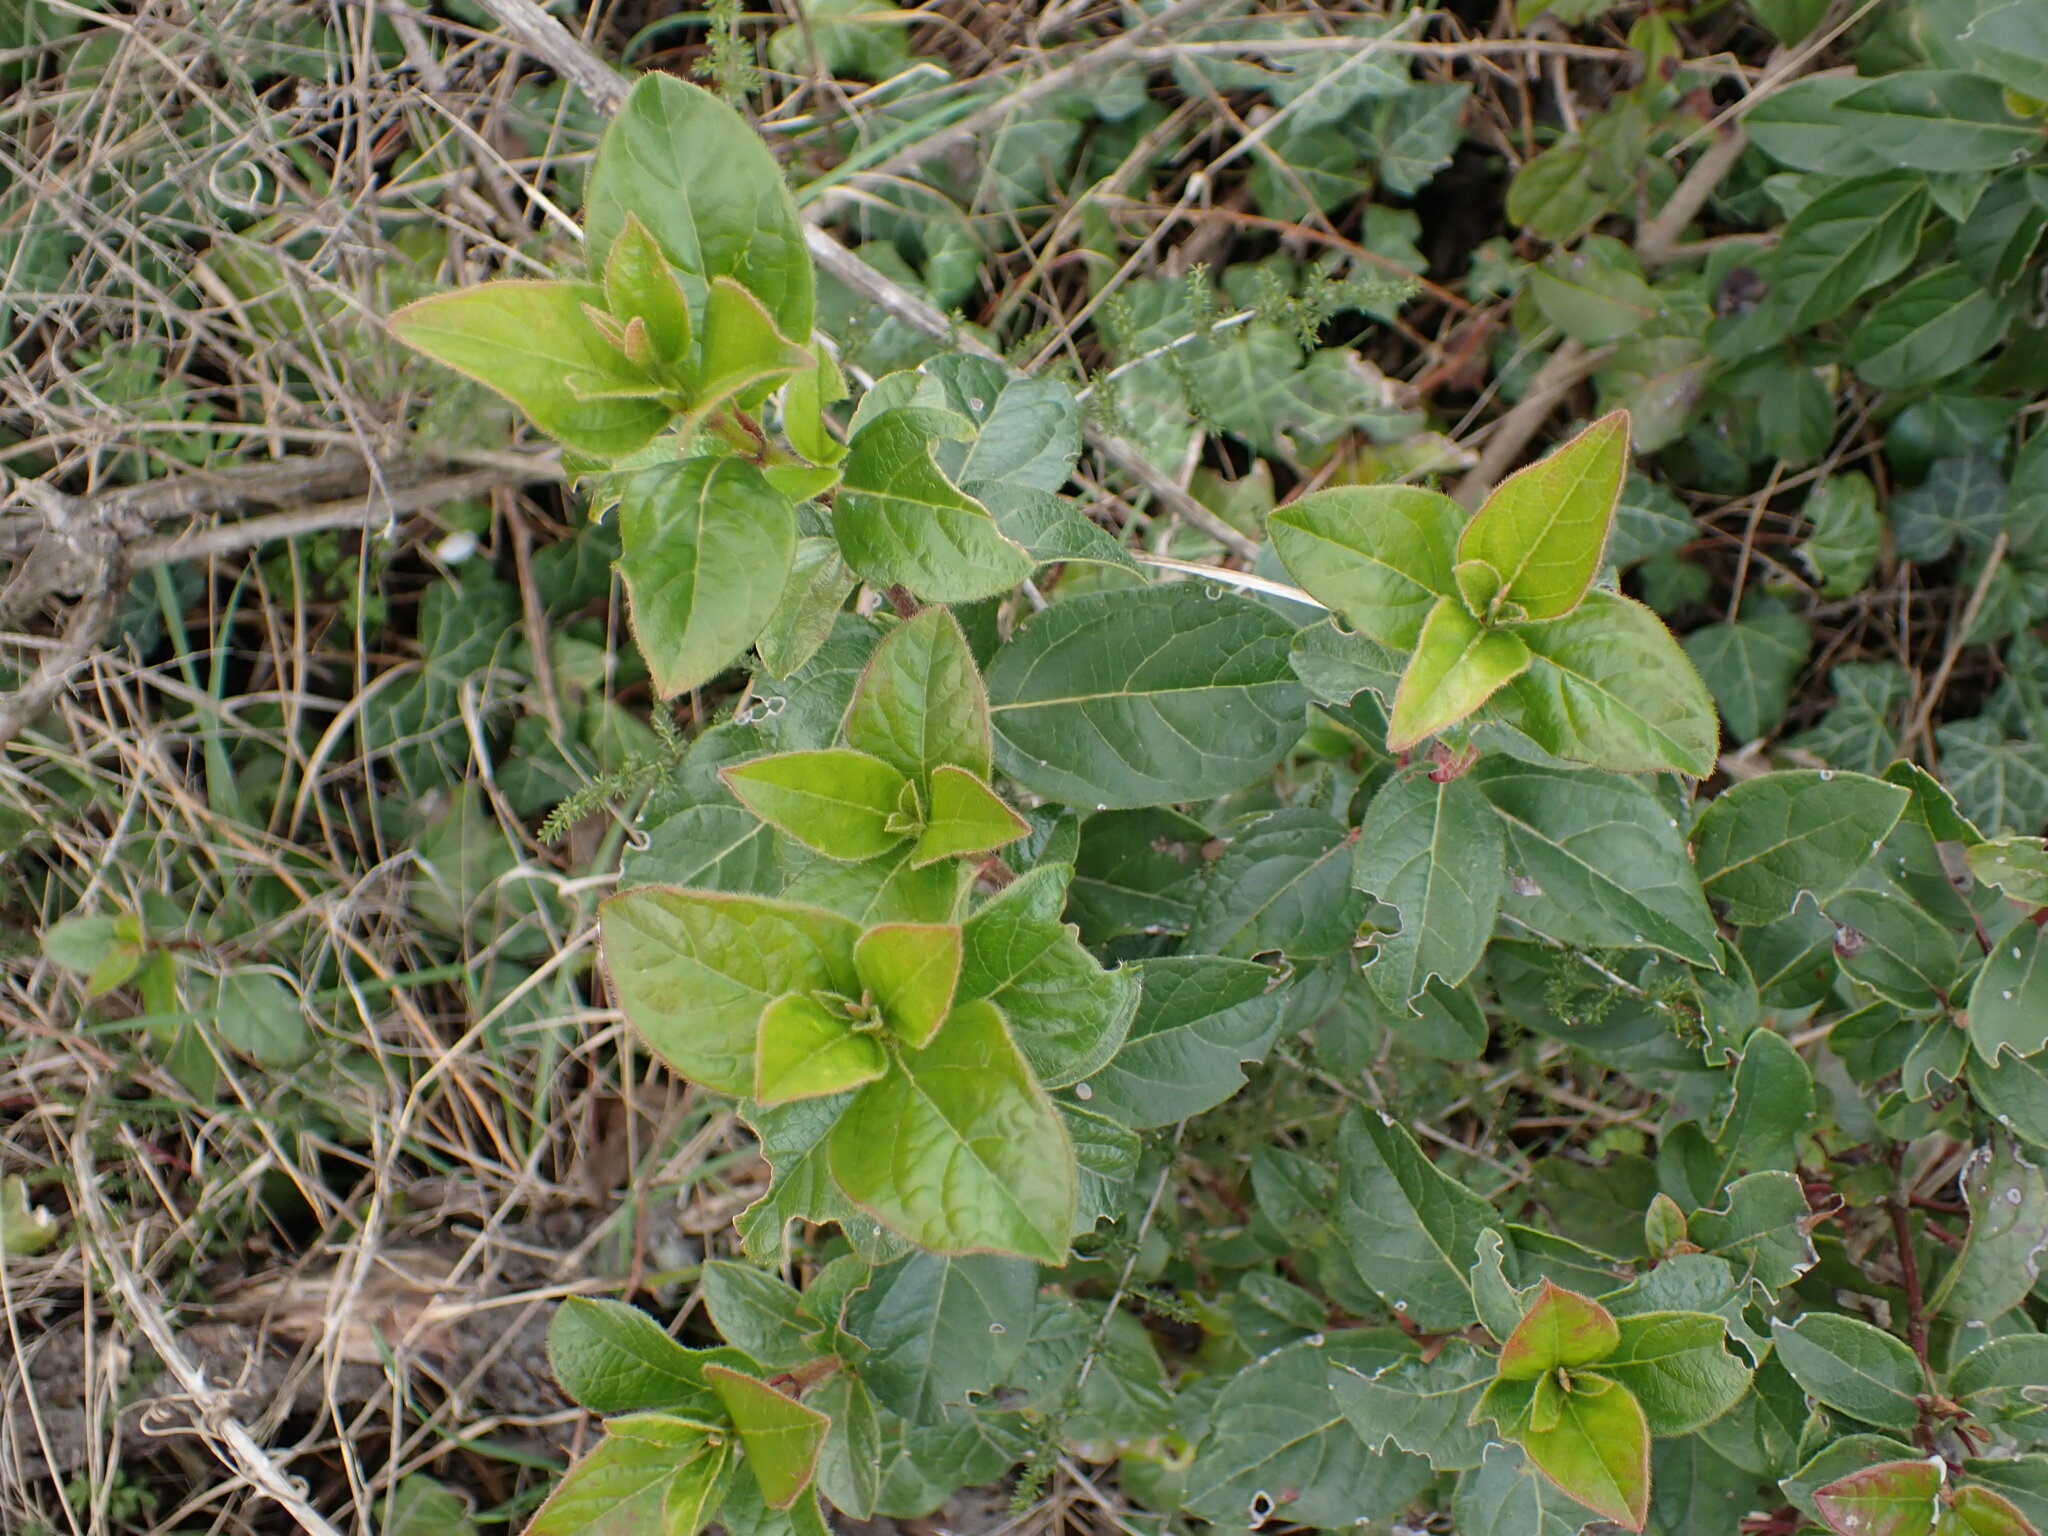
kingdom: Plantae
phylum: Tracheophyta
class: Magnoliopsida
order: Dipsacales
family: Viburnaceae
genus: Viburnum
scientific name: Viburnum tinus
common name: Laurustinus
